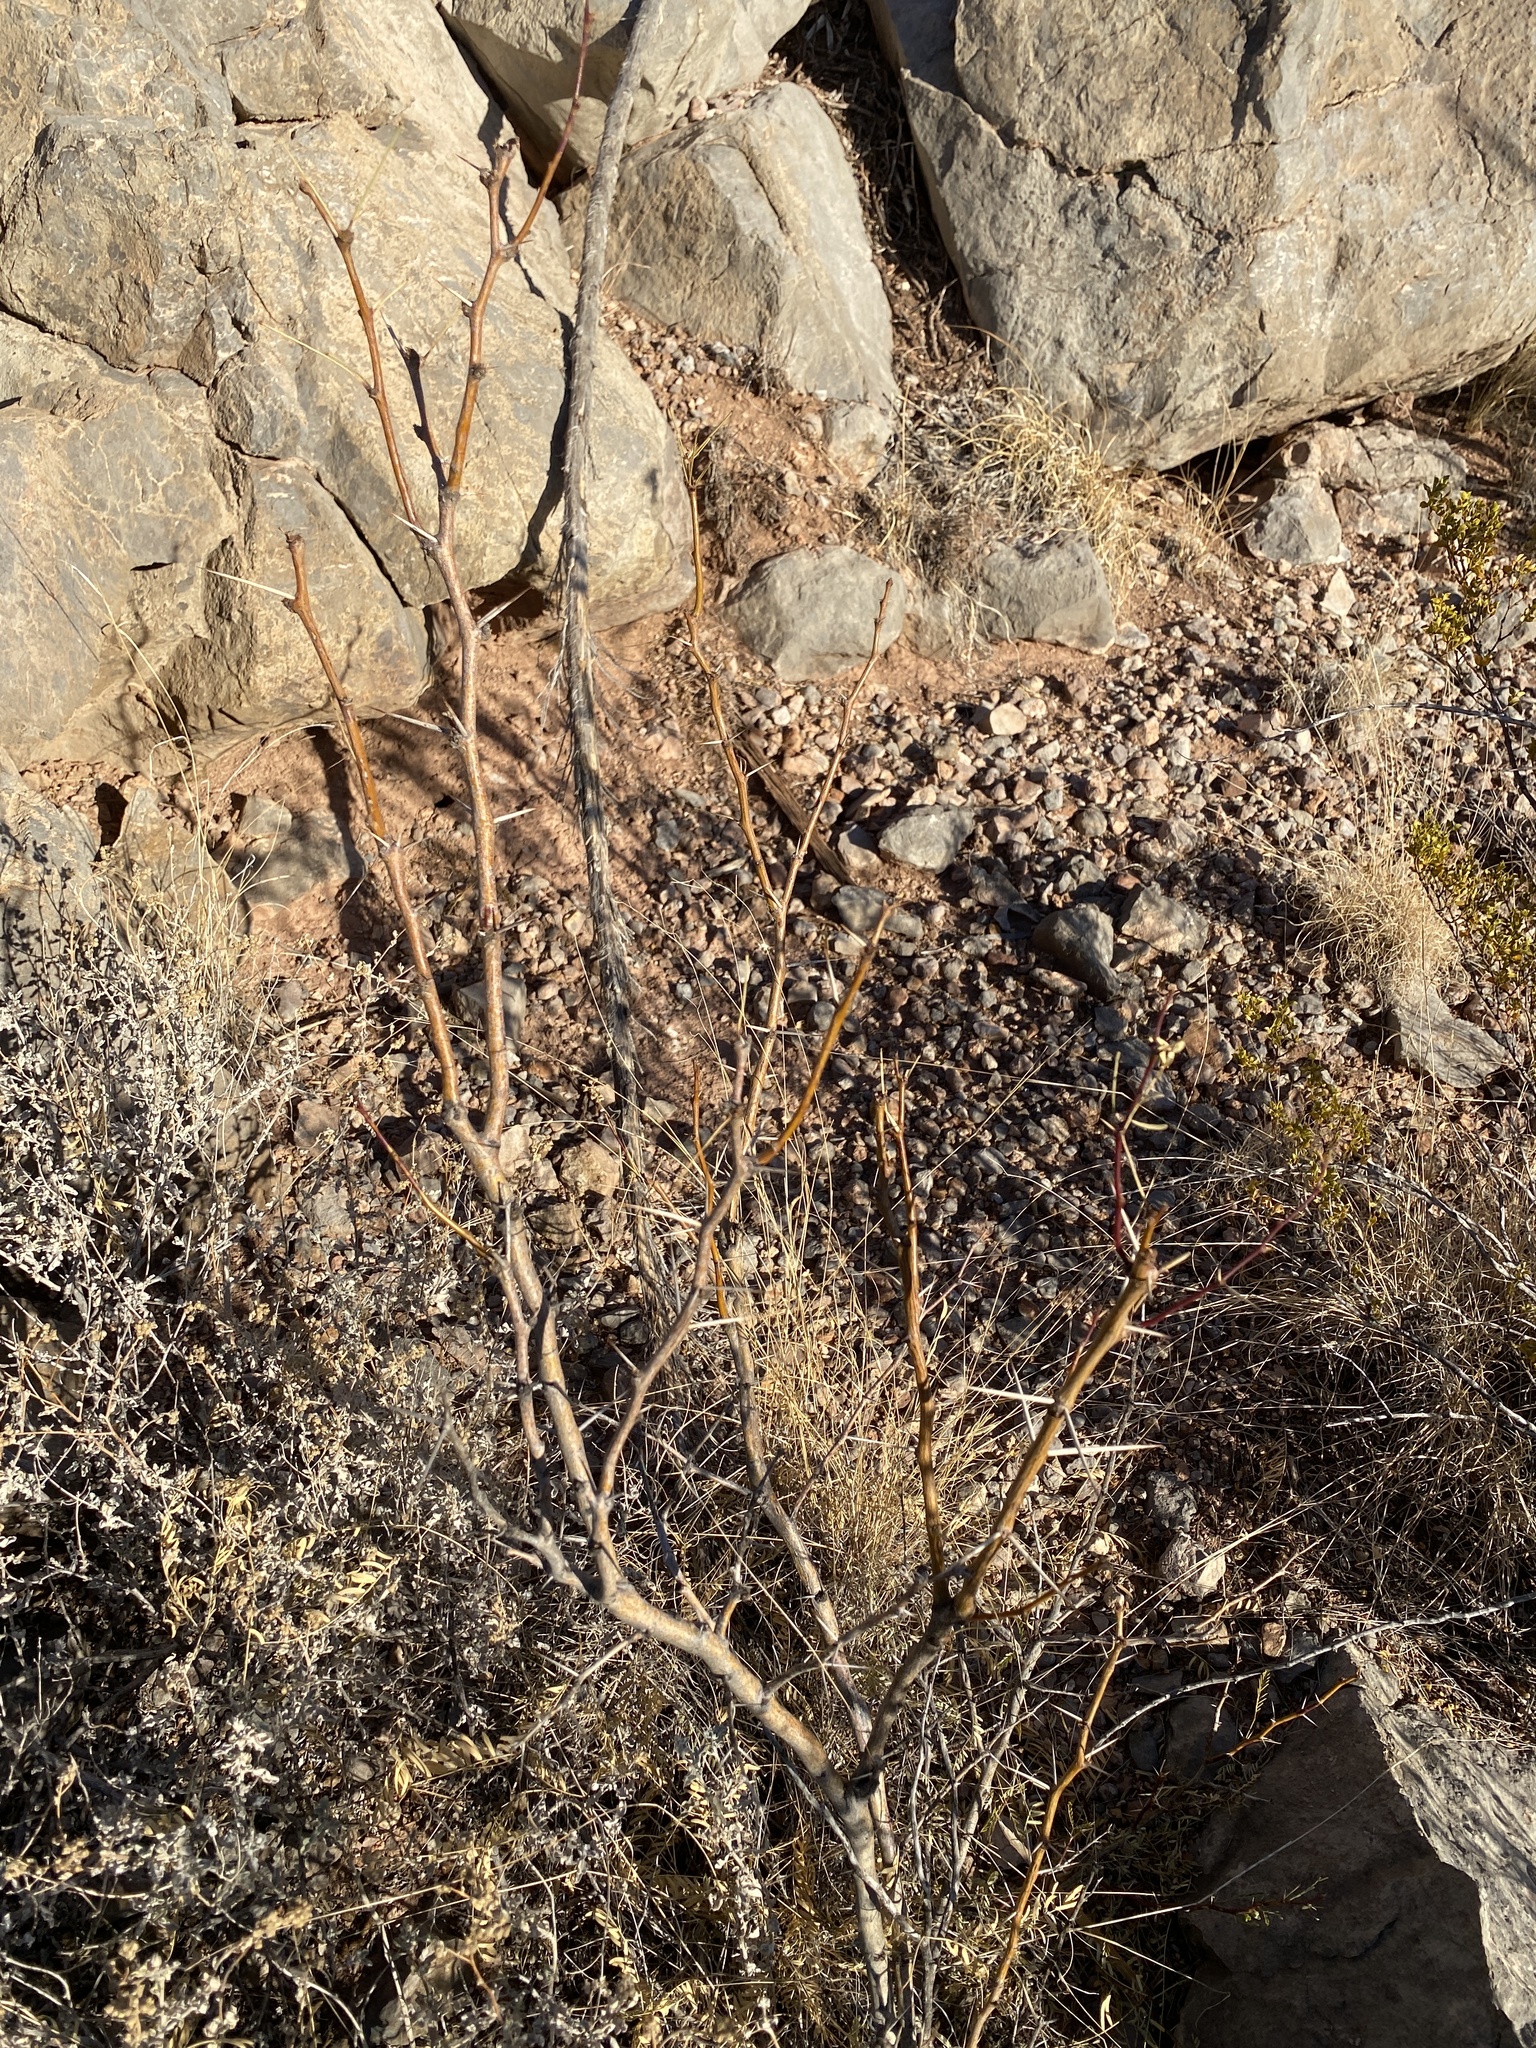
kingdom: Plantae
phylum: Tracheophyta
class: Magnoliopsida
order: Fabales
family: Fabaceae
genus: Prosopis
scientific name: Prosopis glandulosa
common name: Honey mesquite
